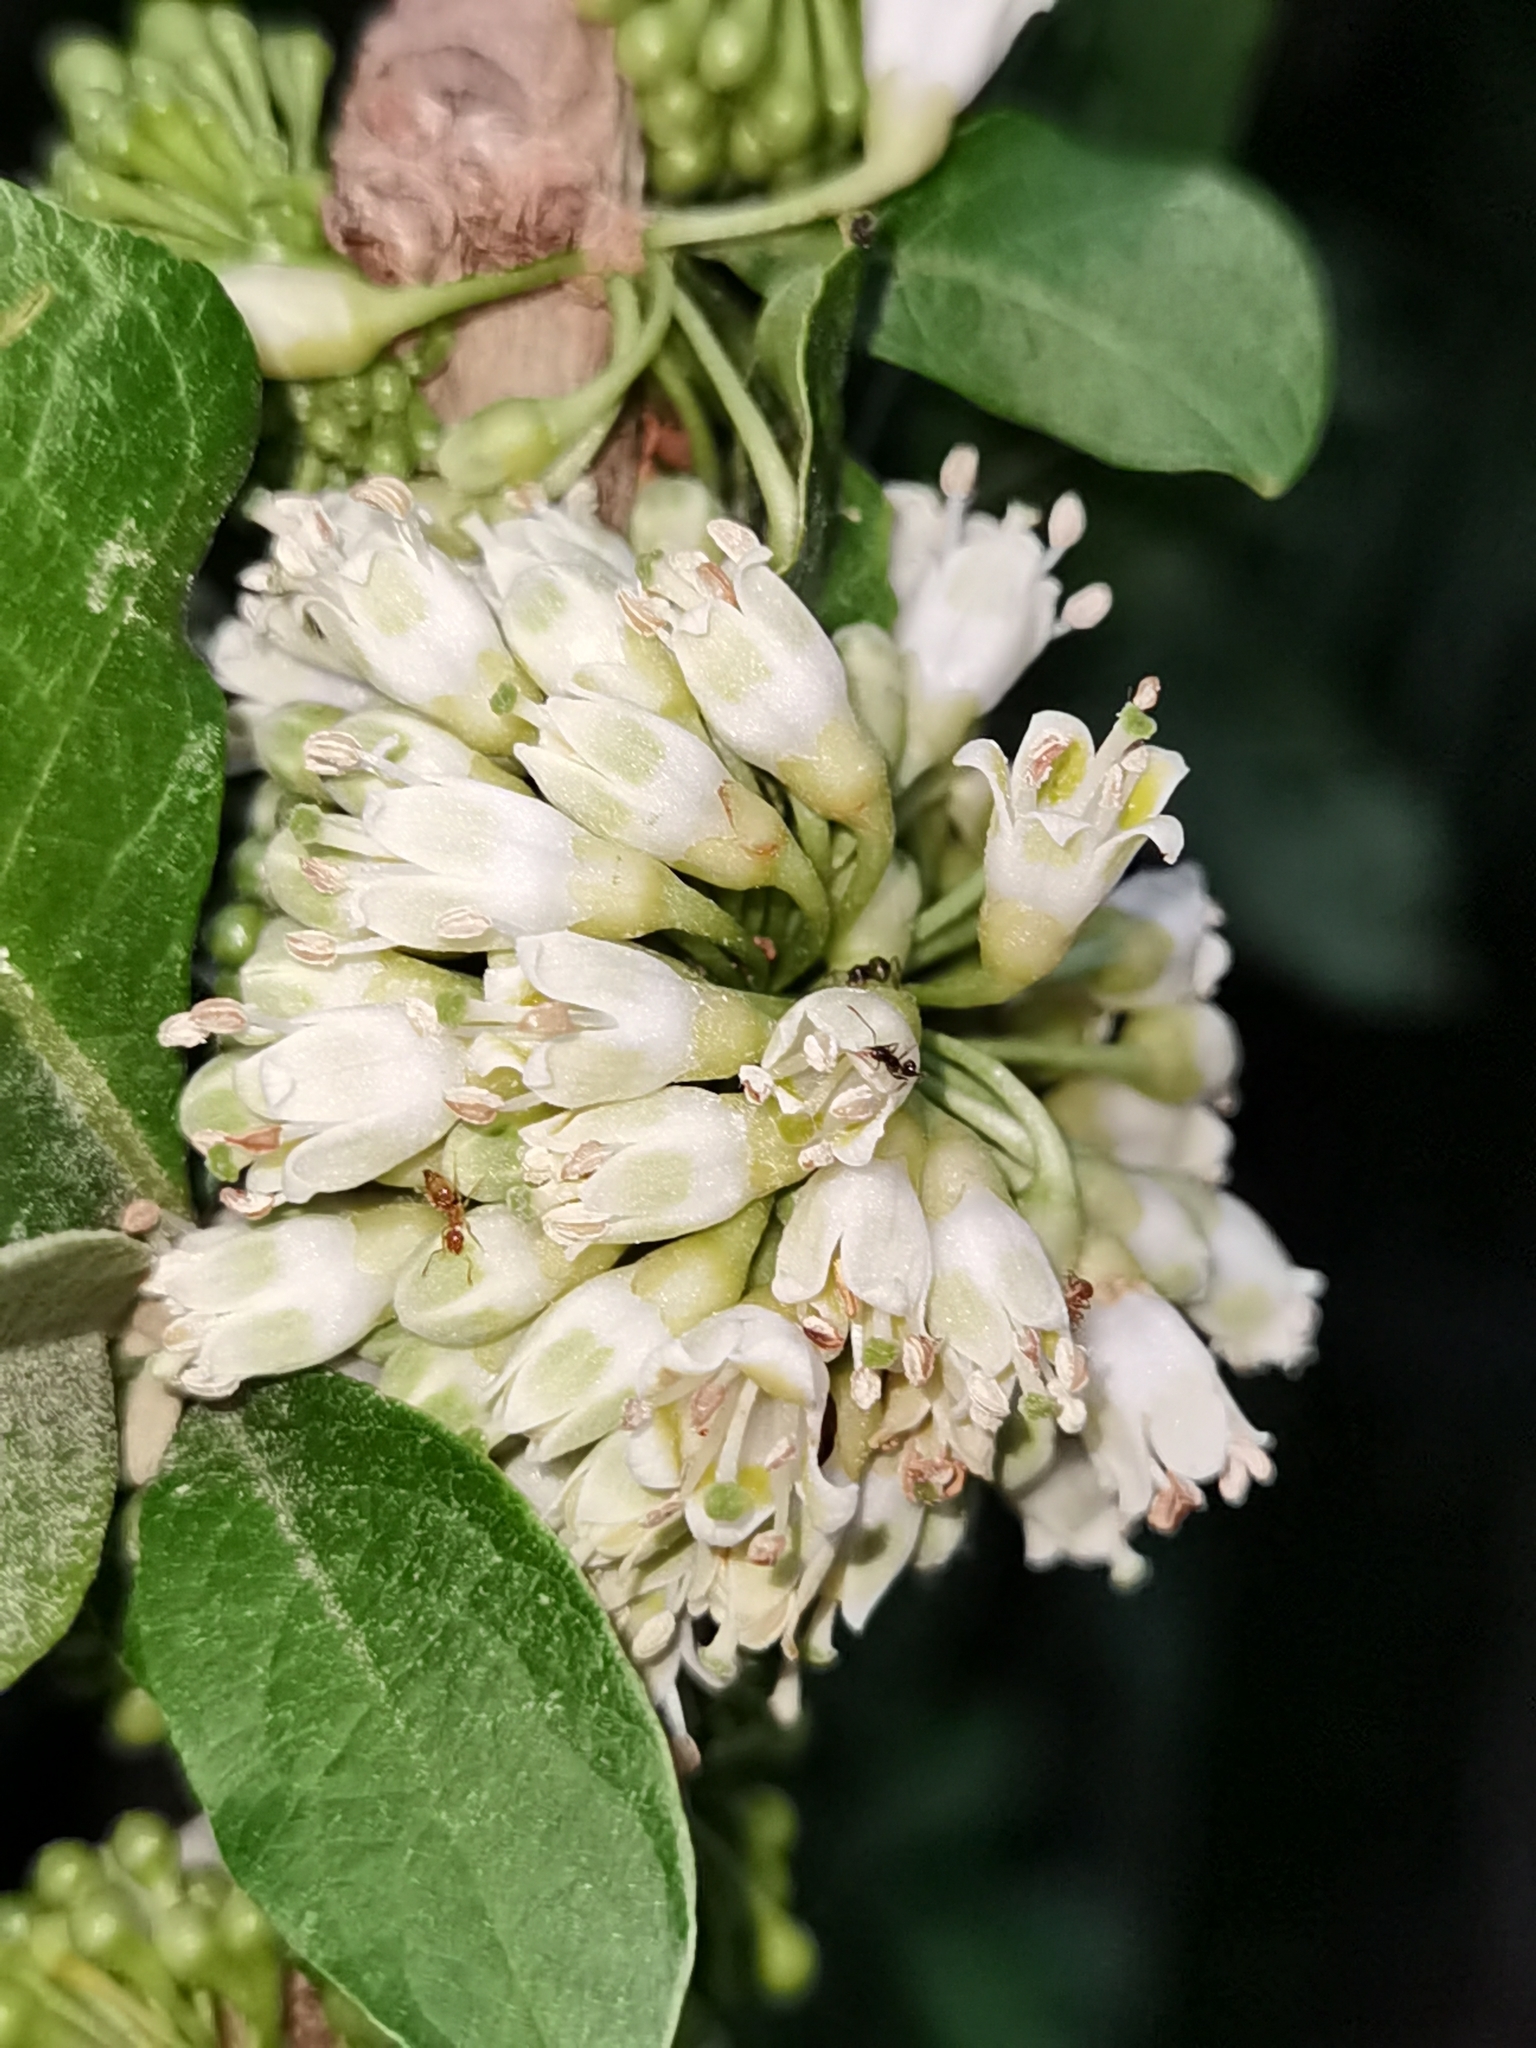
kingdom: Plantae
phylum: Tracheophyta
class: Magnoliopsida
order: Solanales
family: Solanaceae
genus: Iochroma
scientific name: Iochroma arborescens
